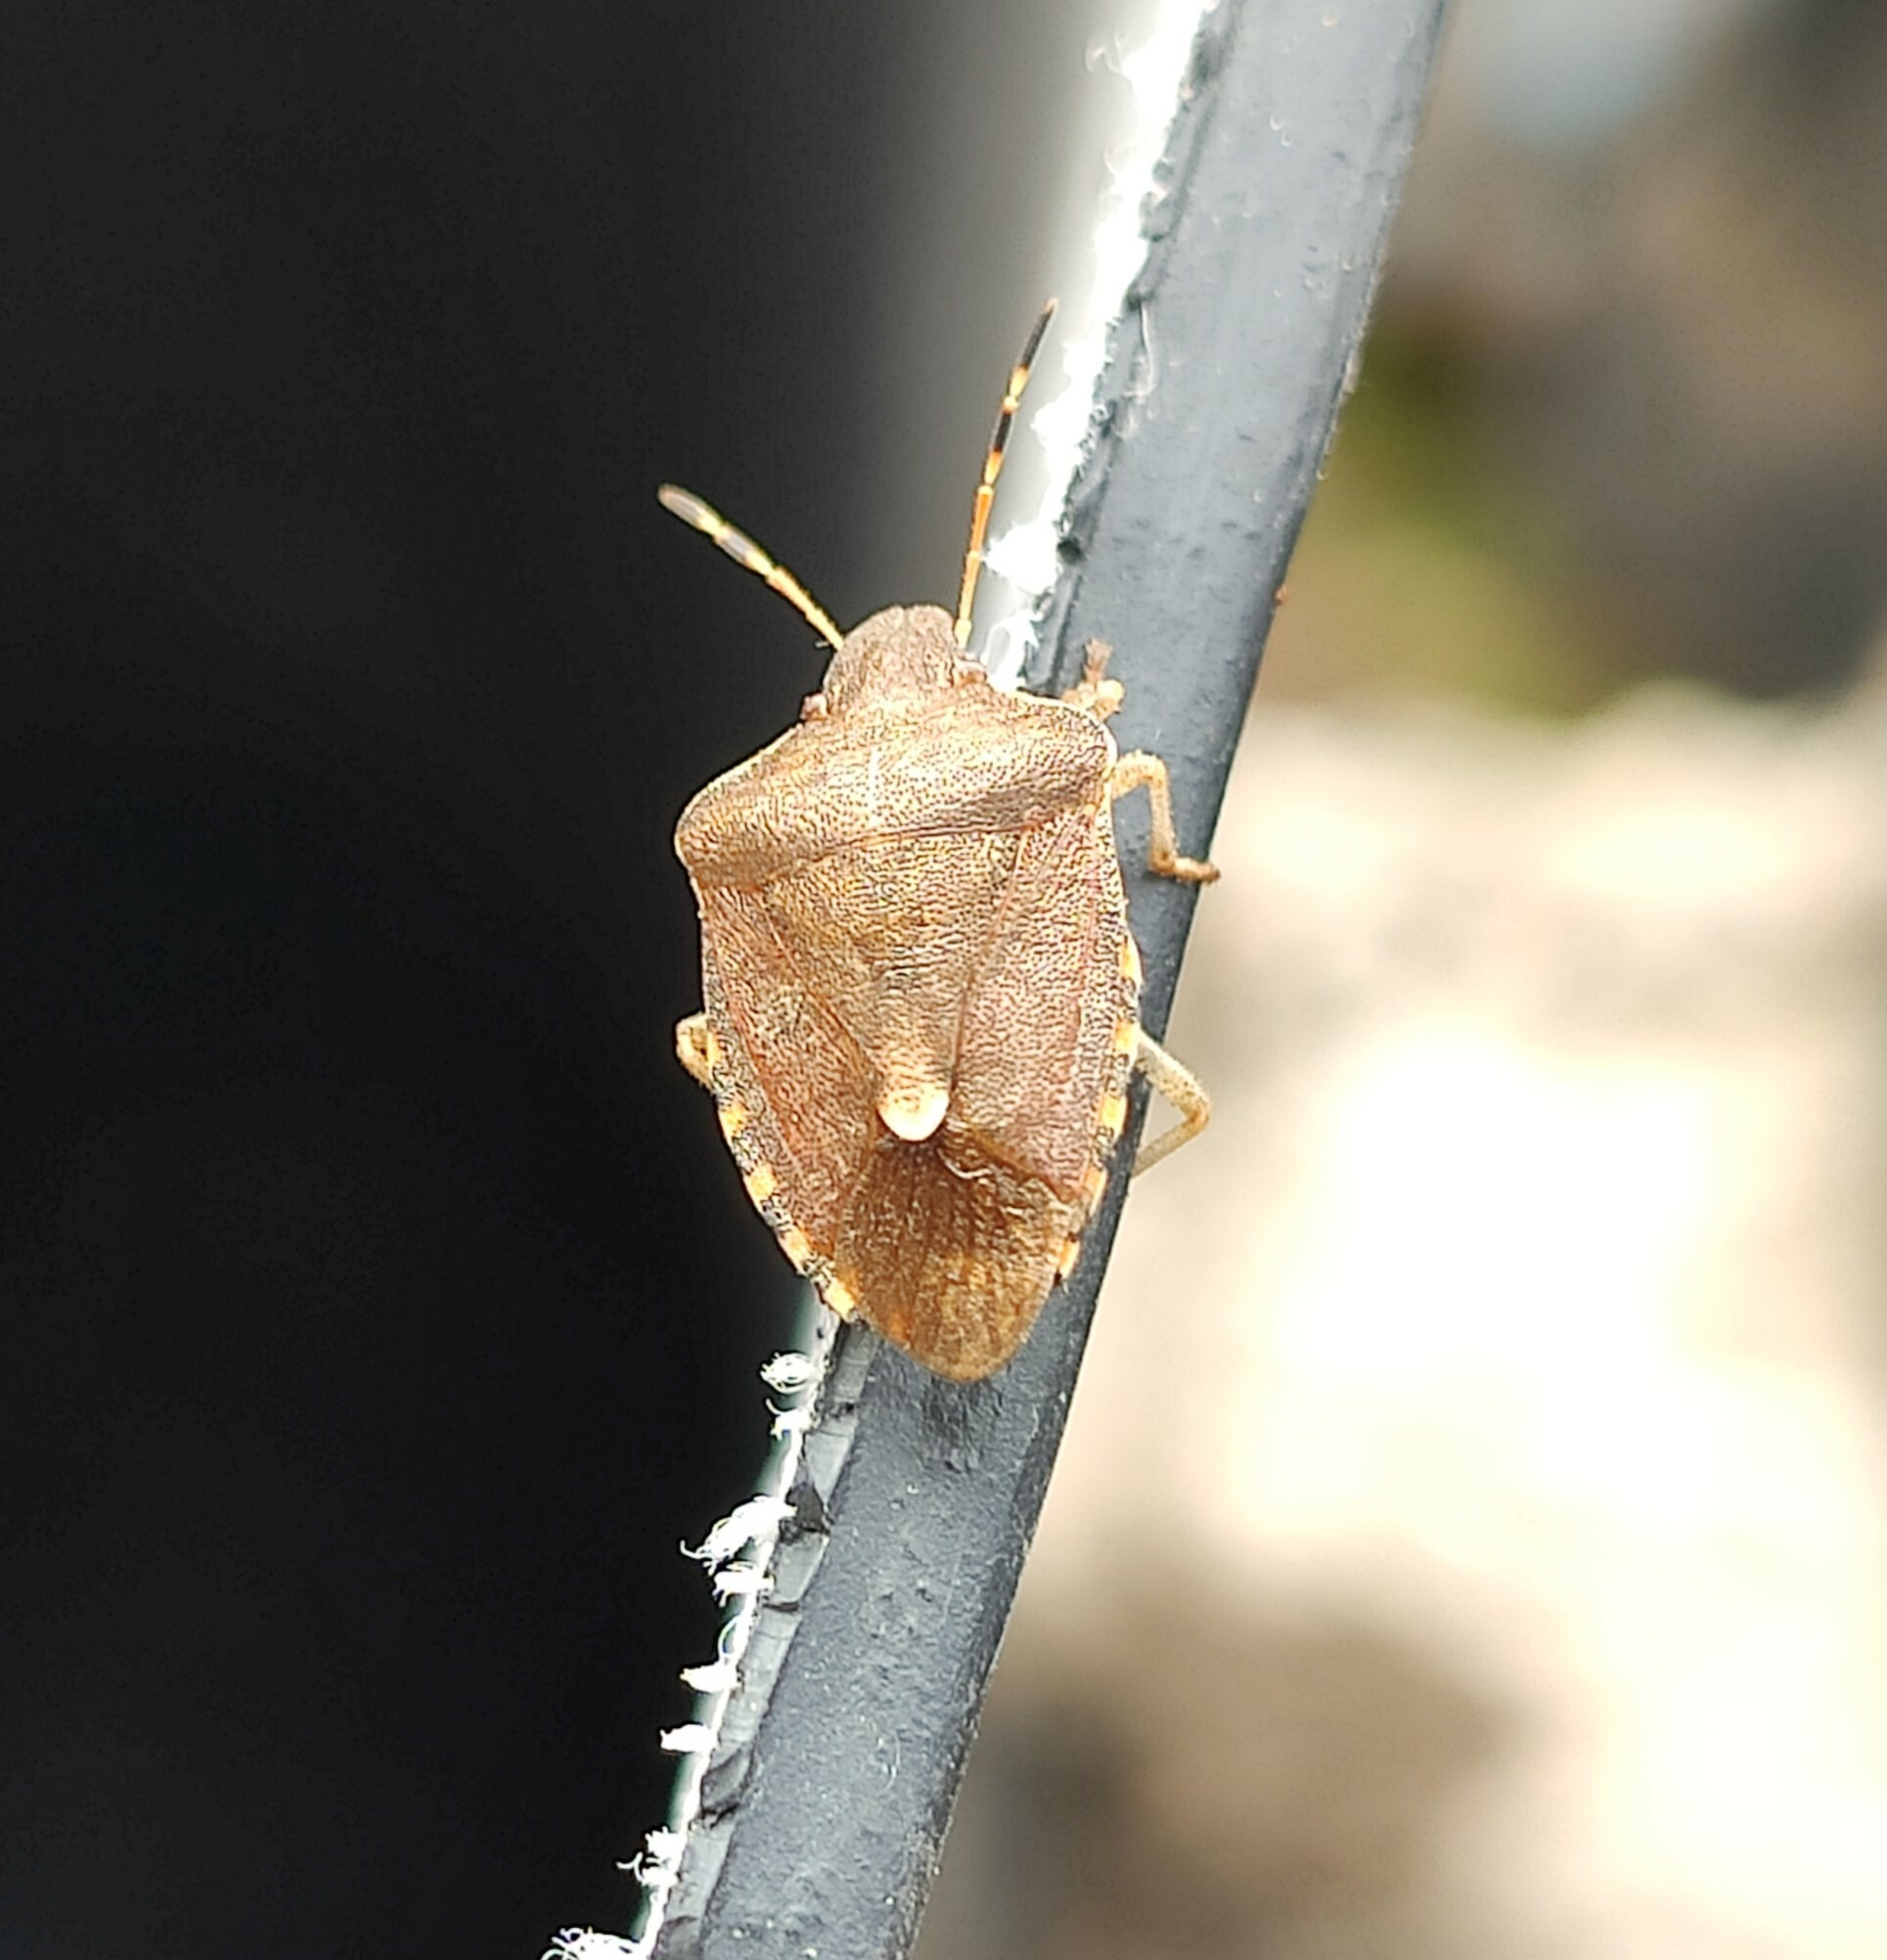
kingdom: Animalia
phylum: Arthropoda
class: Insecta
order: Hemiptera
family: Pentatomidae
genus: Holcostethus
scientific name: Holcostethus strictus
